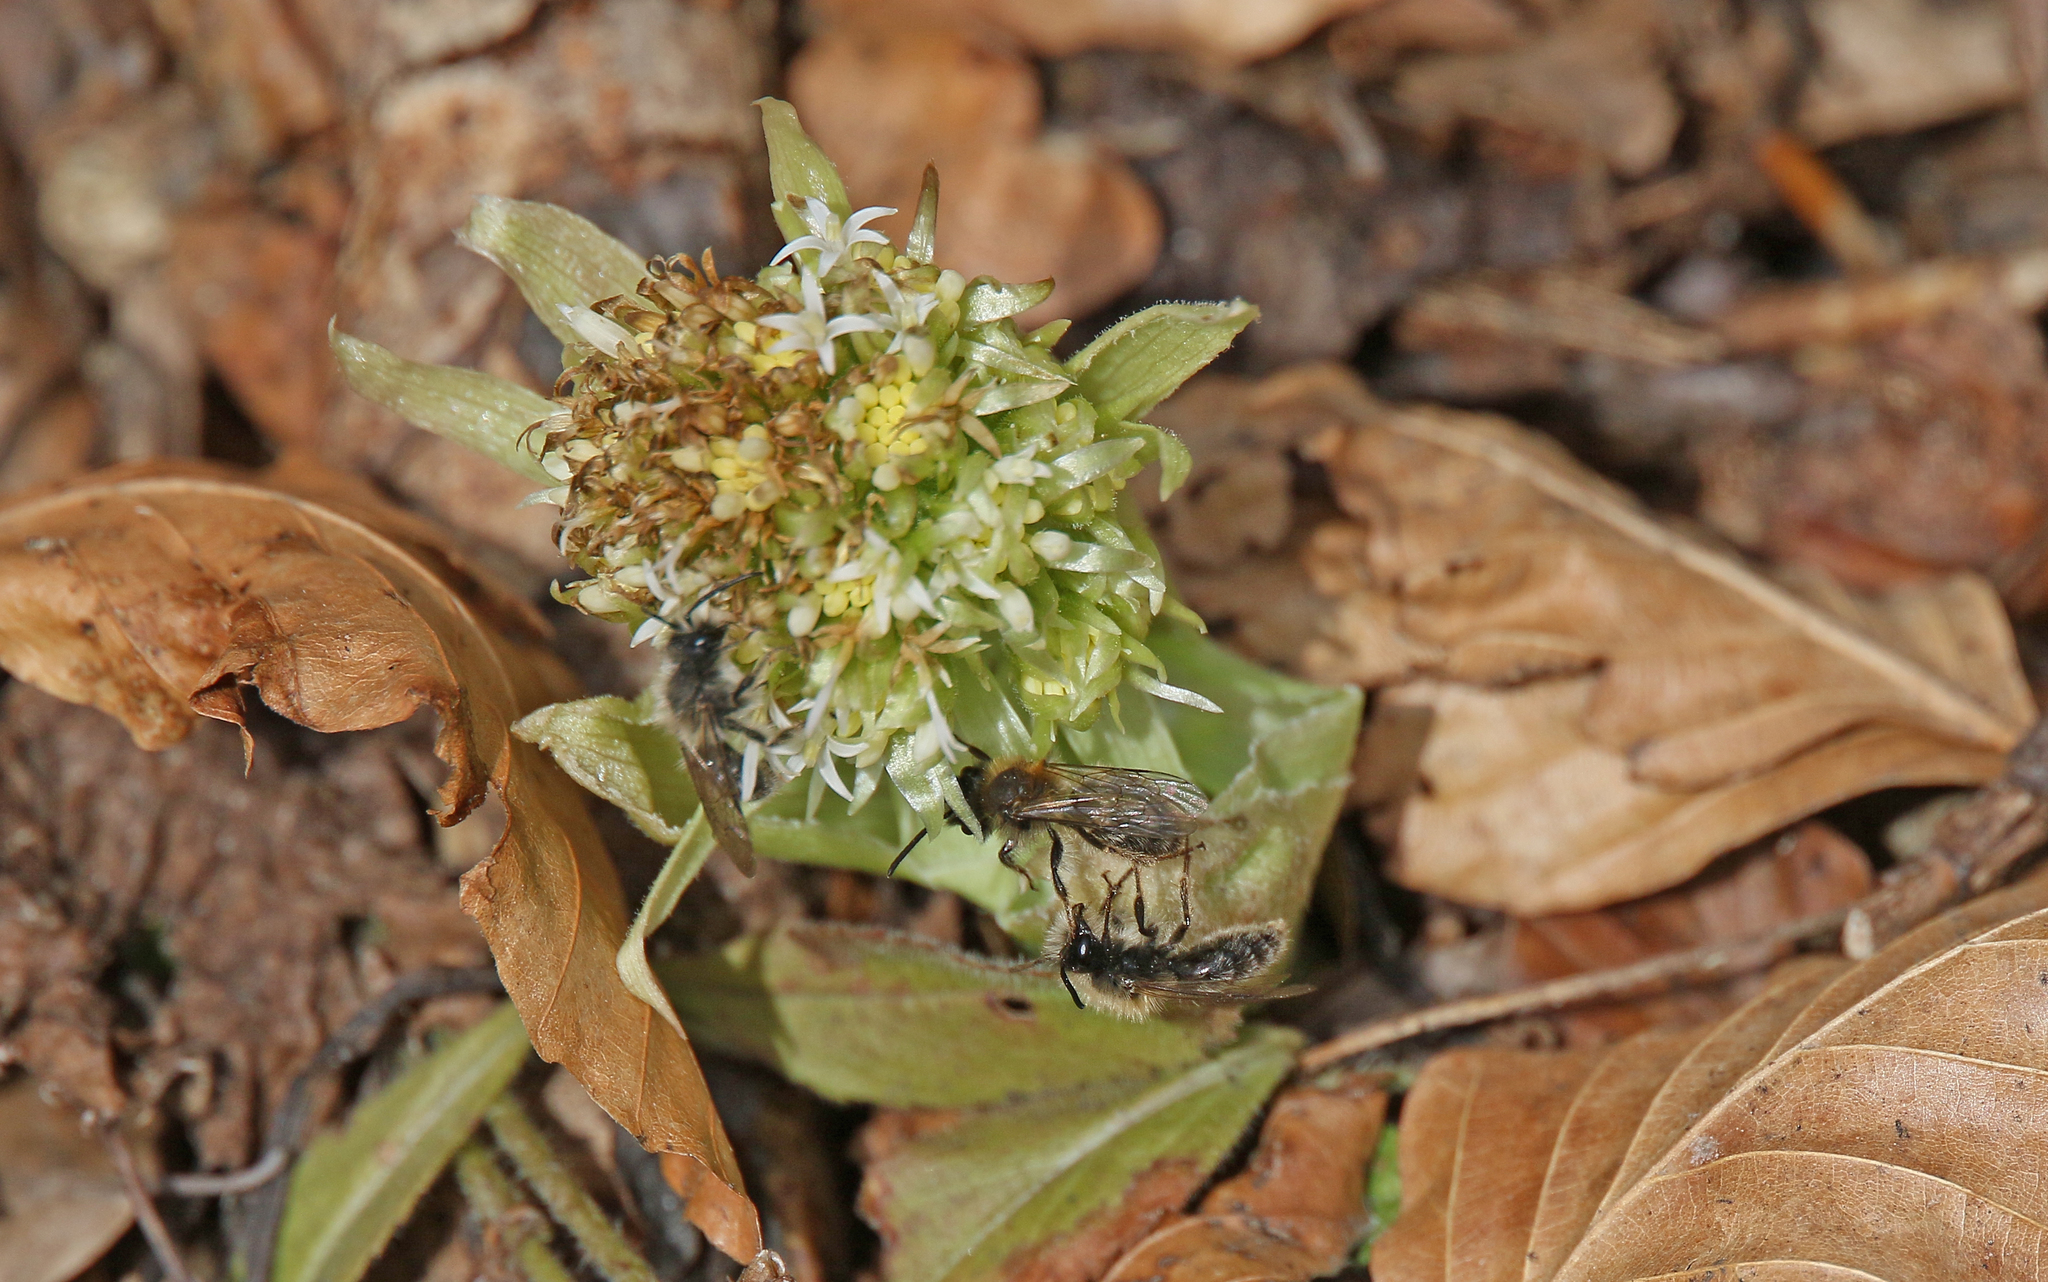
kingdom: Animalia
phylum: Arthropoda
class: Insecta
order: Hymenoptera
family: Andrenidae
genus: Andrena
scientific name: Andrena clarkella
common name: Clarke's mining bee
